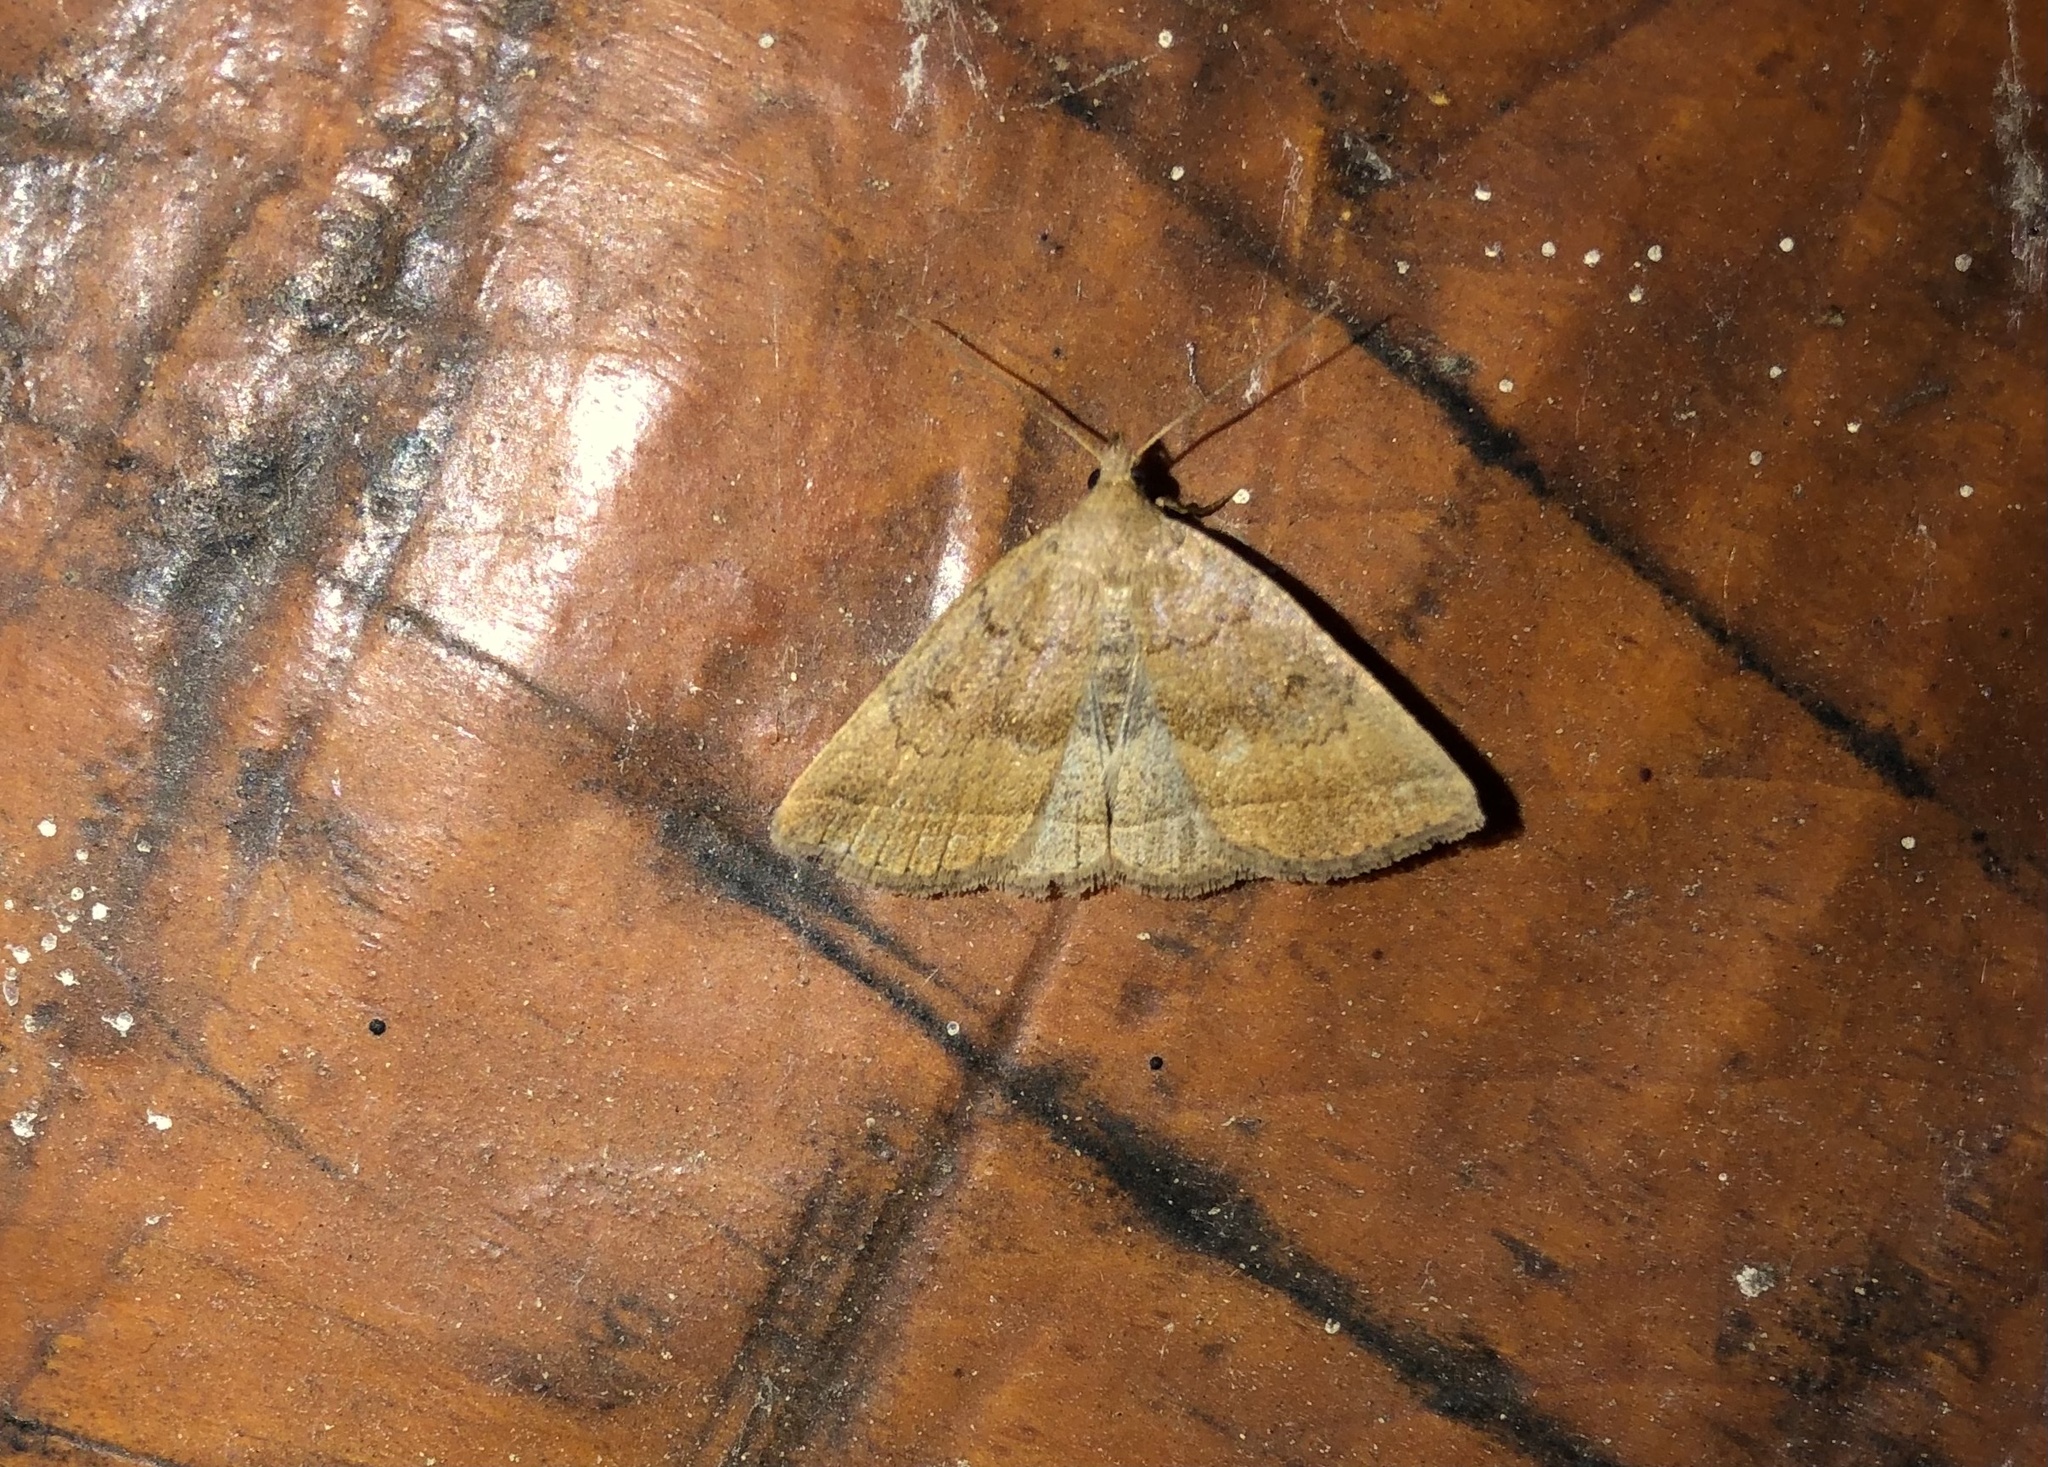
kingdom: Animalia
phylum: Arthropoda
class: Insecta
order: Lepidoptera
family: Erebidae
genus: Zanclognatha
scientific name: Zanclognatha jacchusalis
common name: Yellowish zanclognatha
